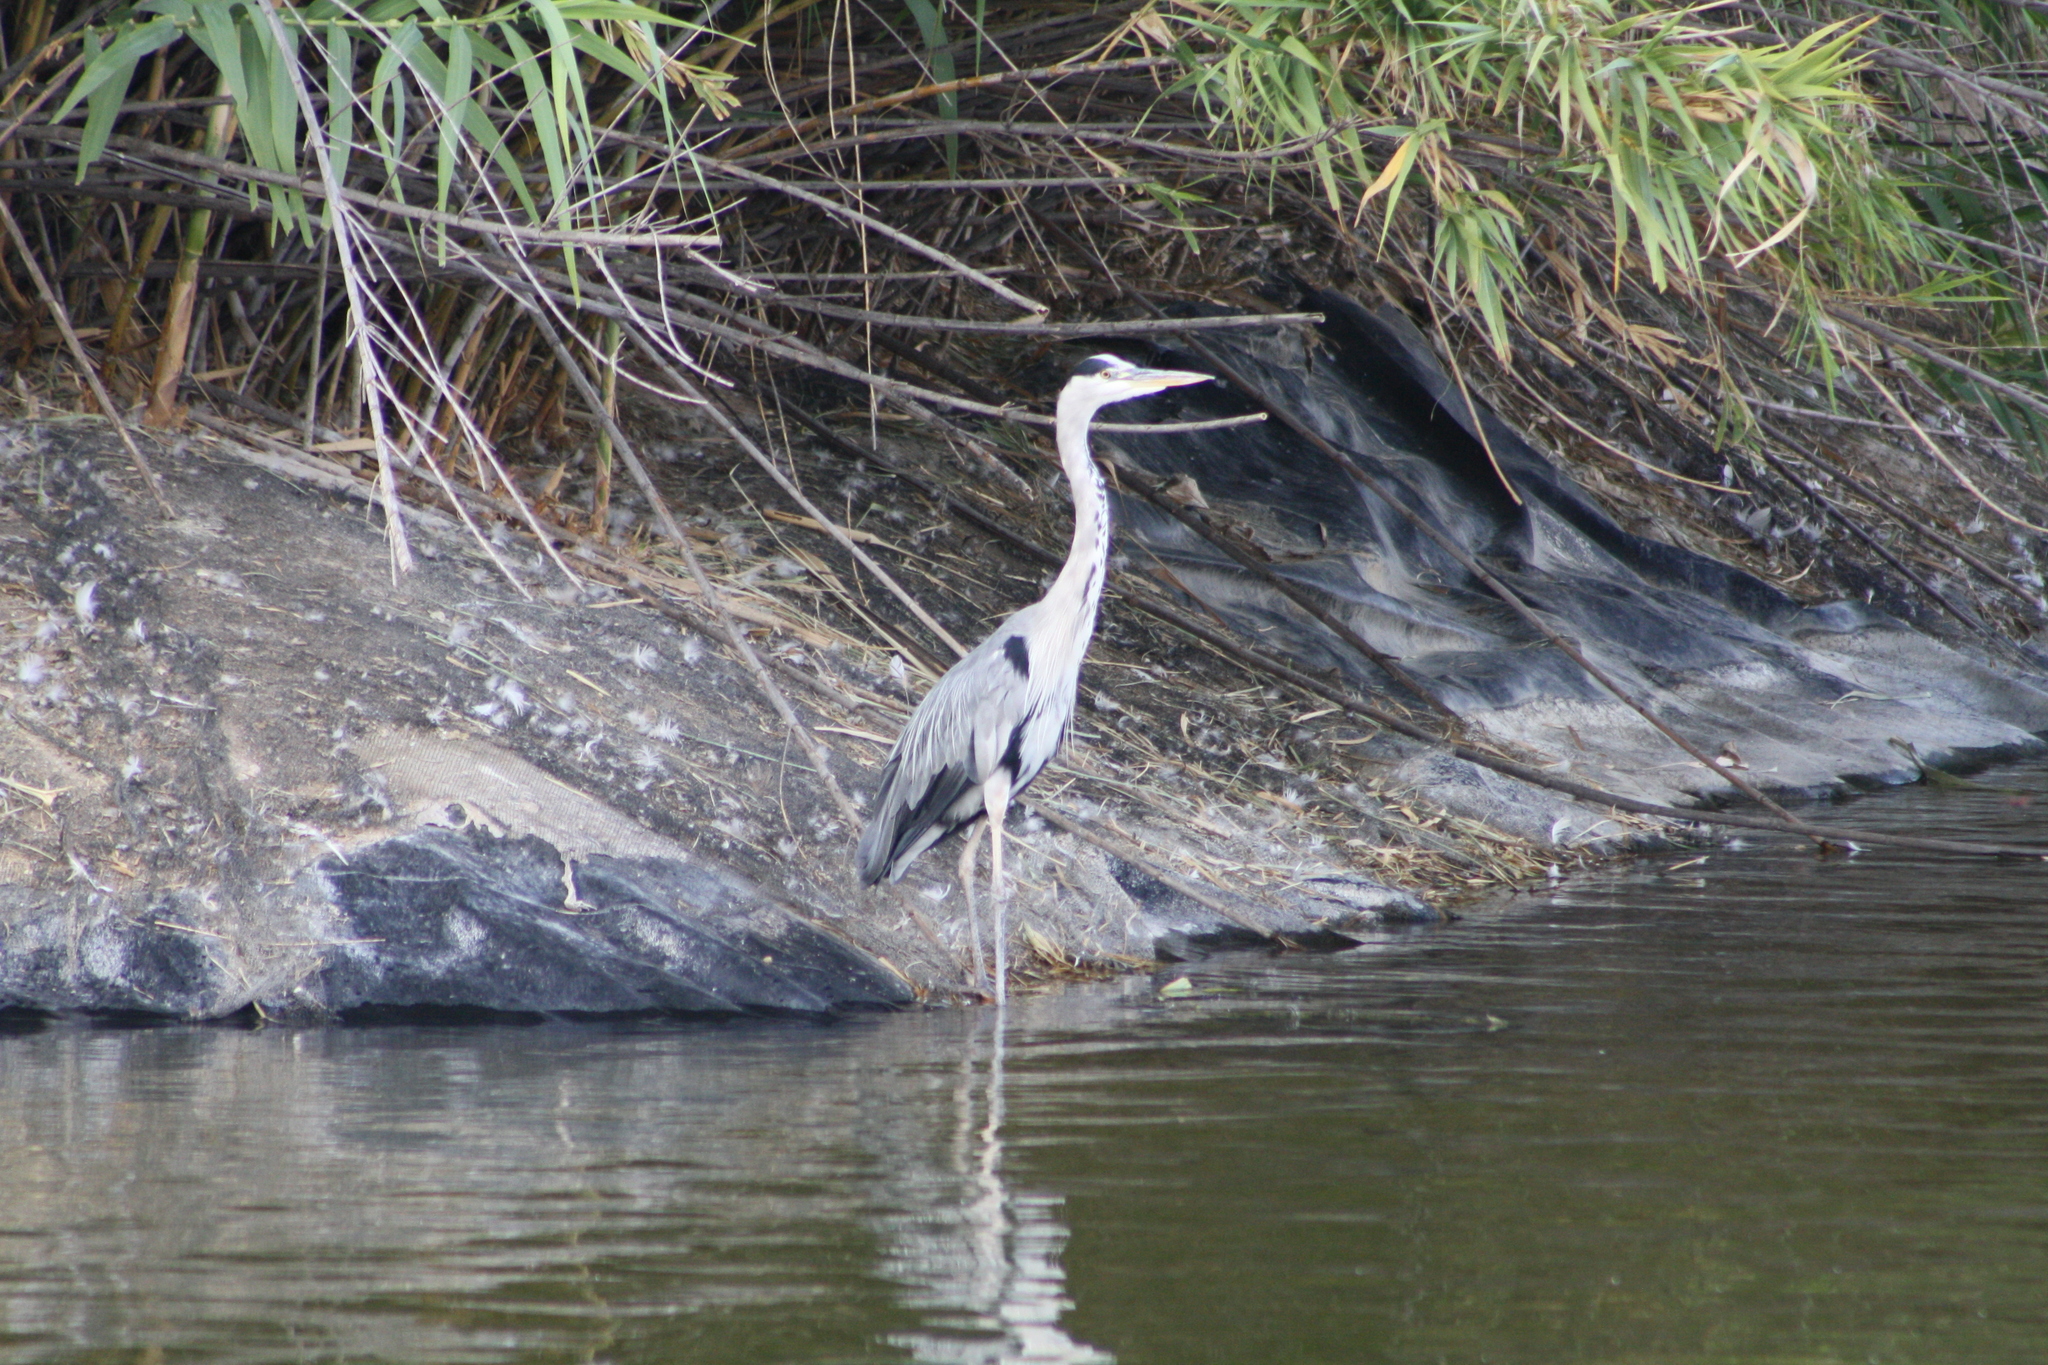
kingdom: Animalia
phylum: Chordata
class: Aves
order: Pelecaniformes
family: Ardeidae
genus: Ardea
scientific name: Ardea cinerea
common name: Grey heron
